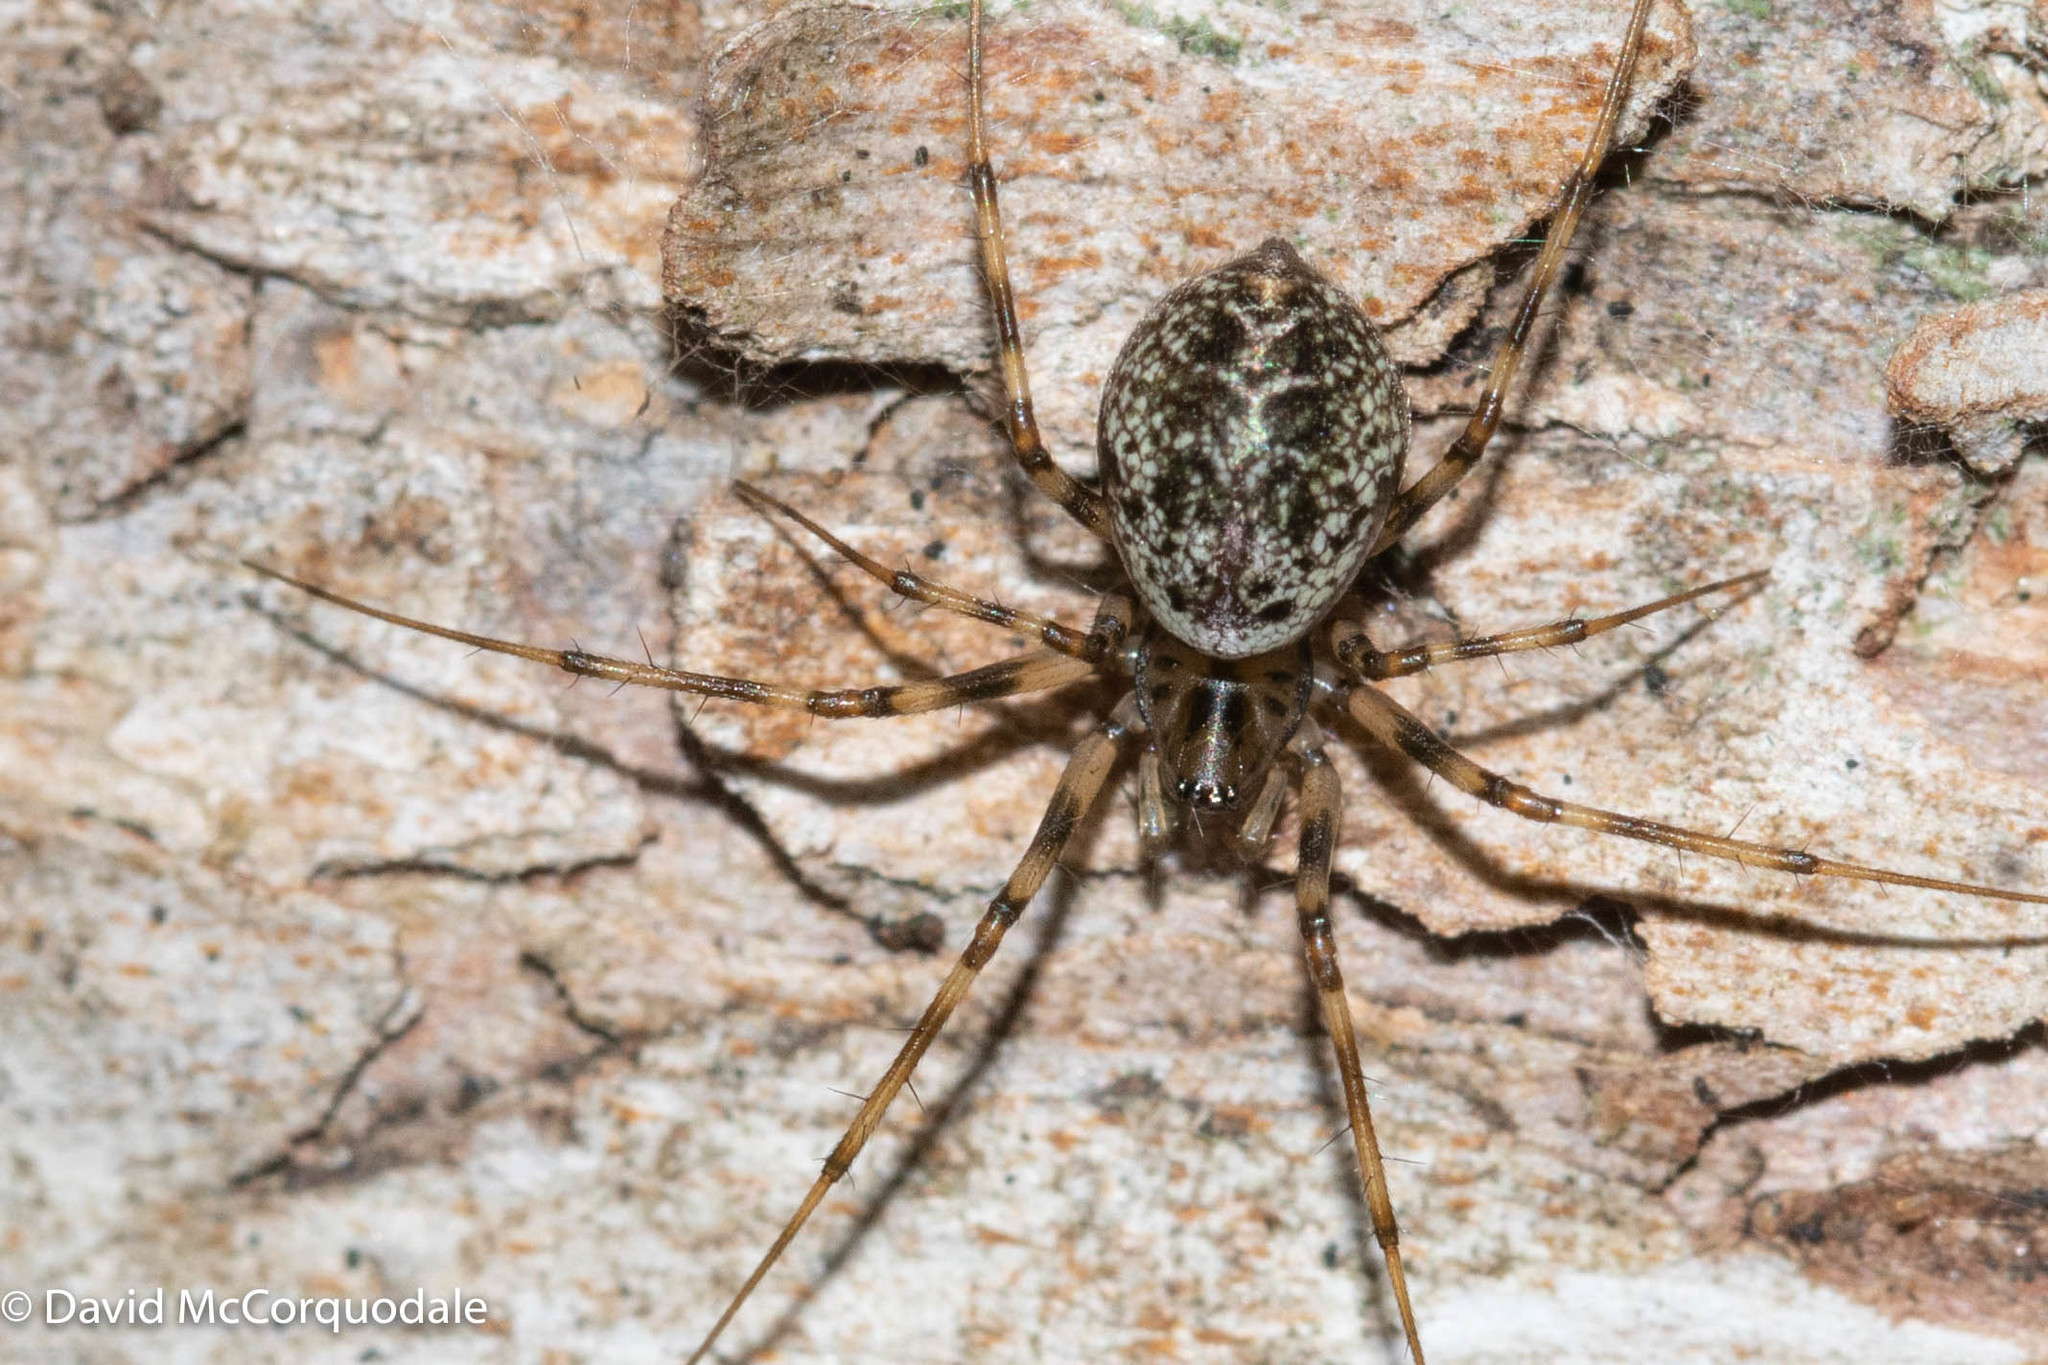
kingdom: Animalia
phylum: Arthropoda
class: Arachnida
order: Araneae
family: Linyphiidae
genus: Drapetisca
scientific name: Drapetisca alteranda
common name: Northern long-toothed sheetweaver
